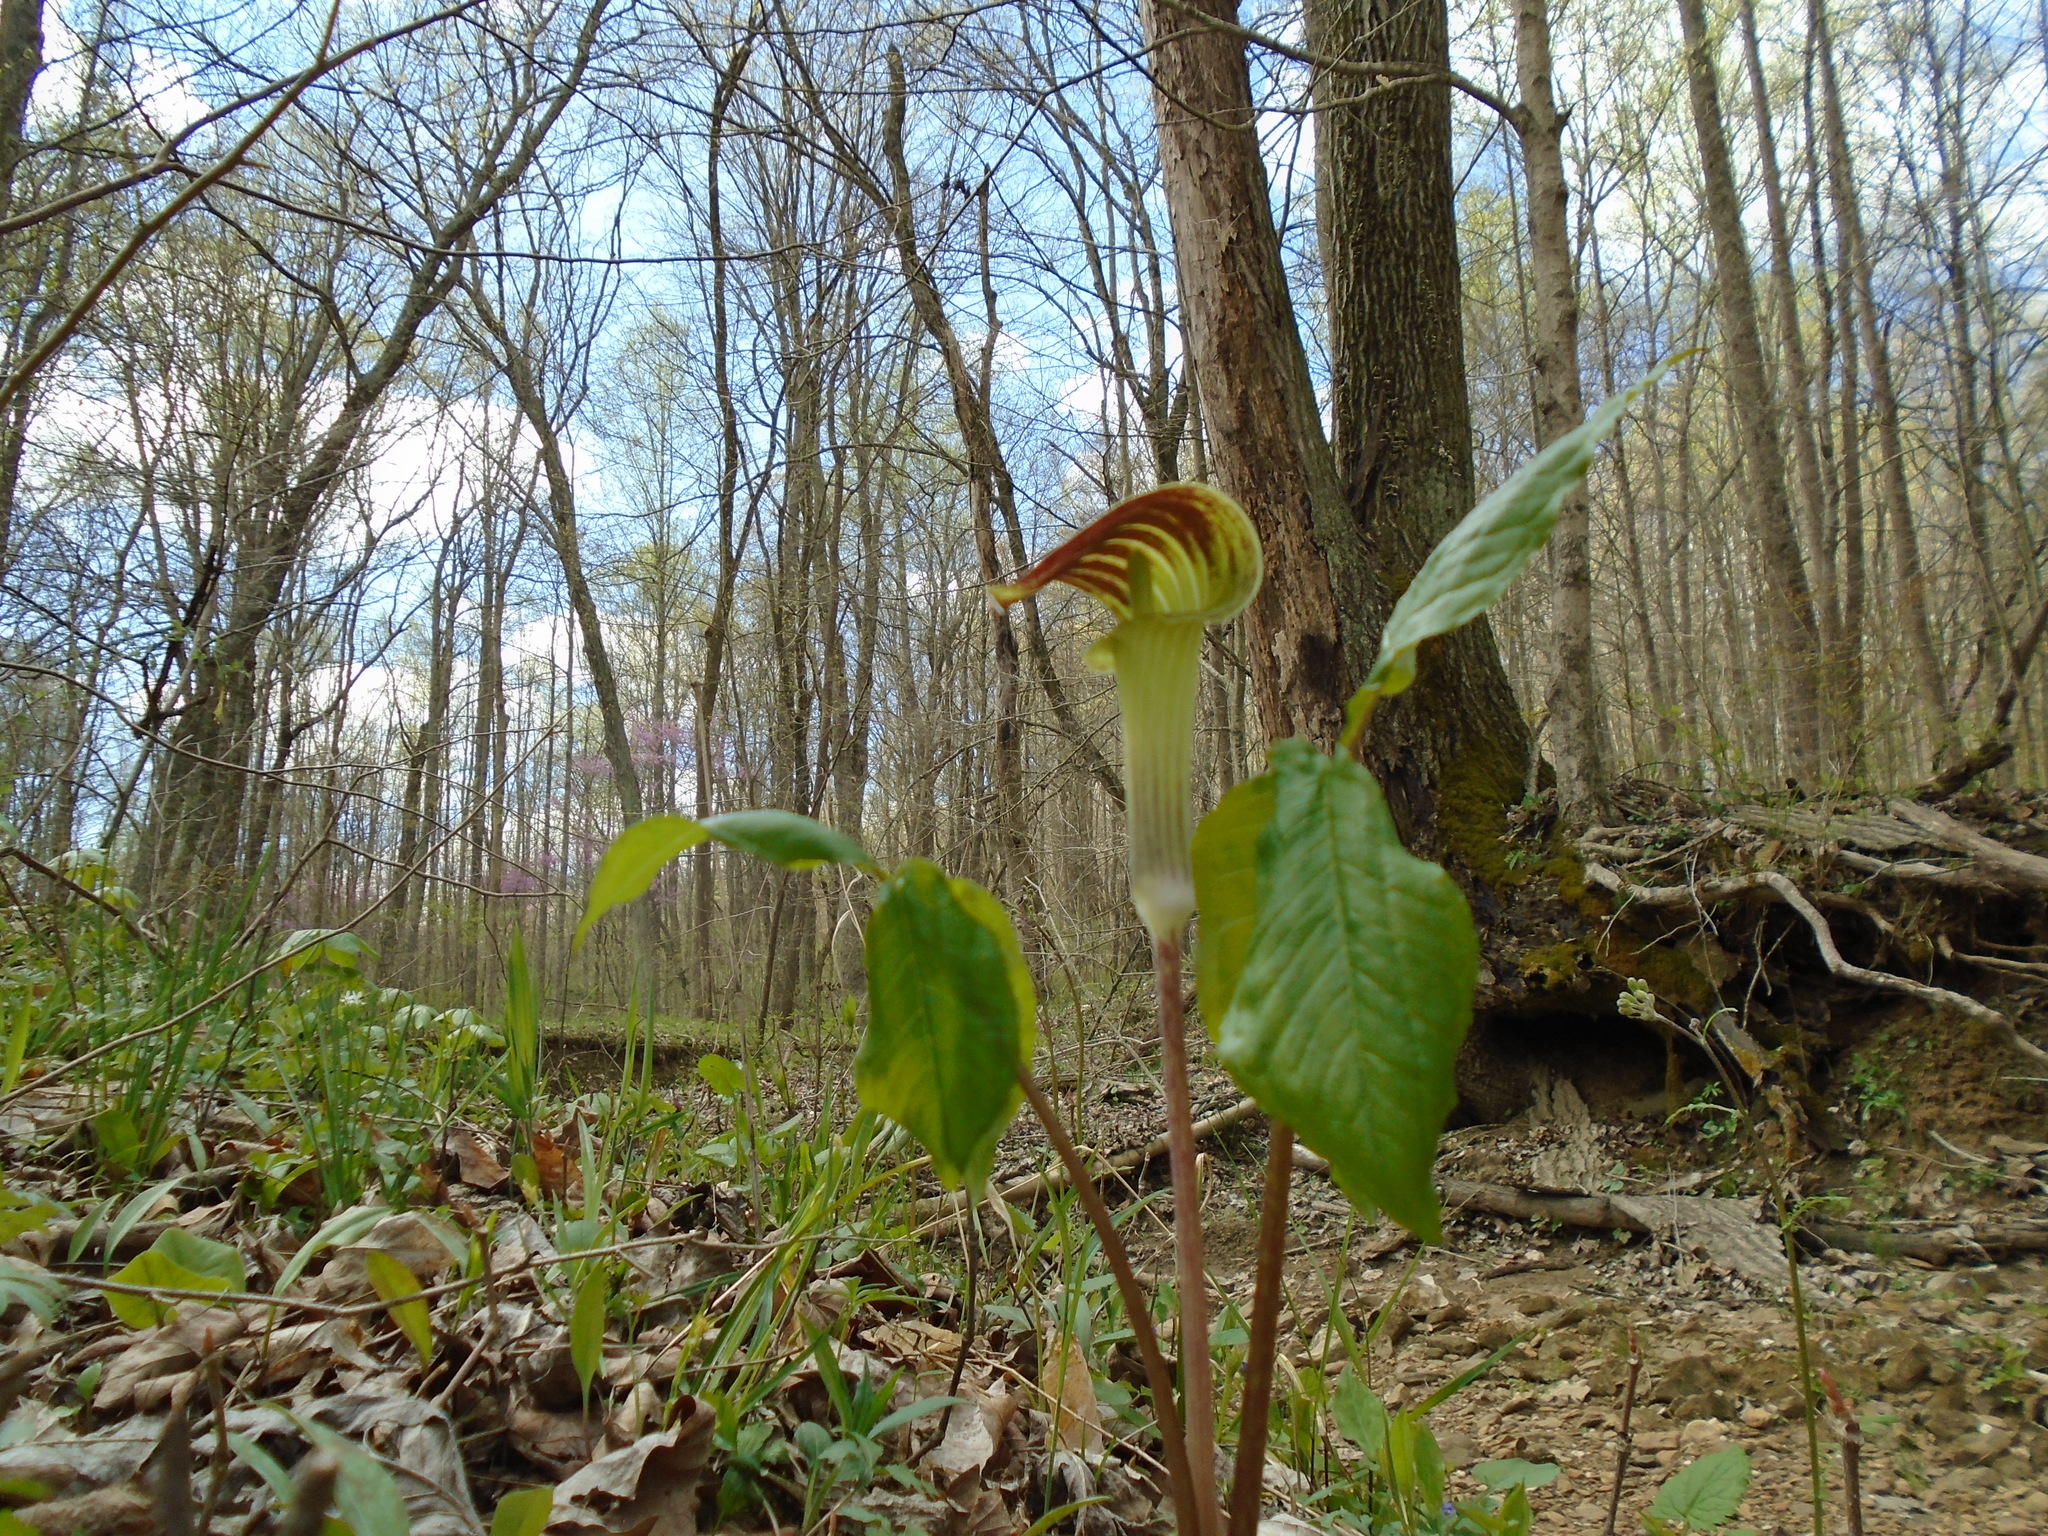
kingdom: Plantae
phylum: Tracheophyta
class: Liliopsida
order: Alismatales
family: Araceae
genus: Arisaema
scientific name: Arisaema triphyllum
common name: Jack-in-the-pulpit
